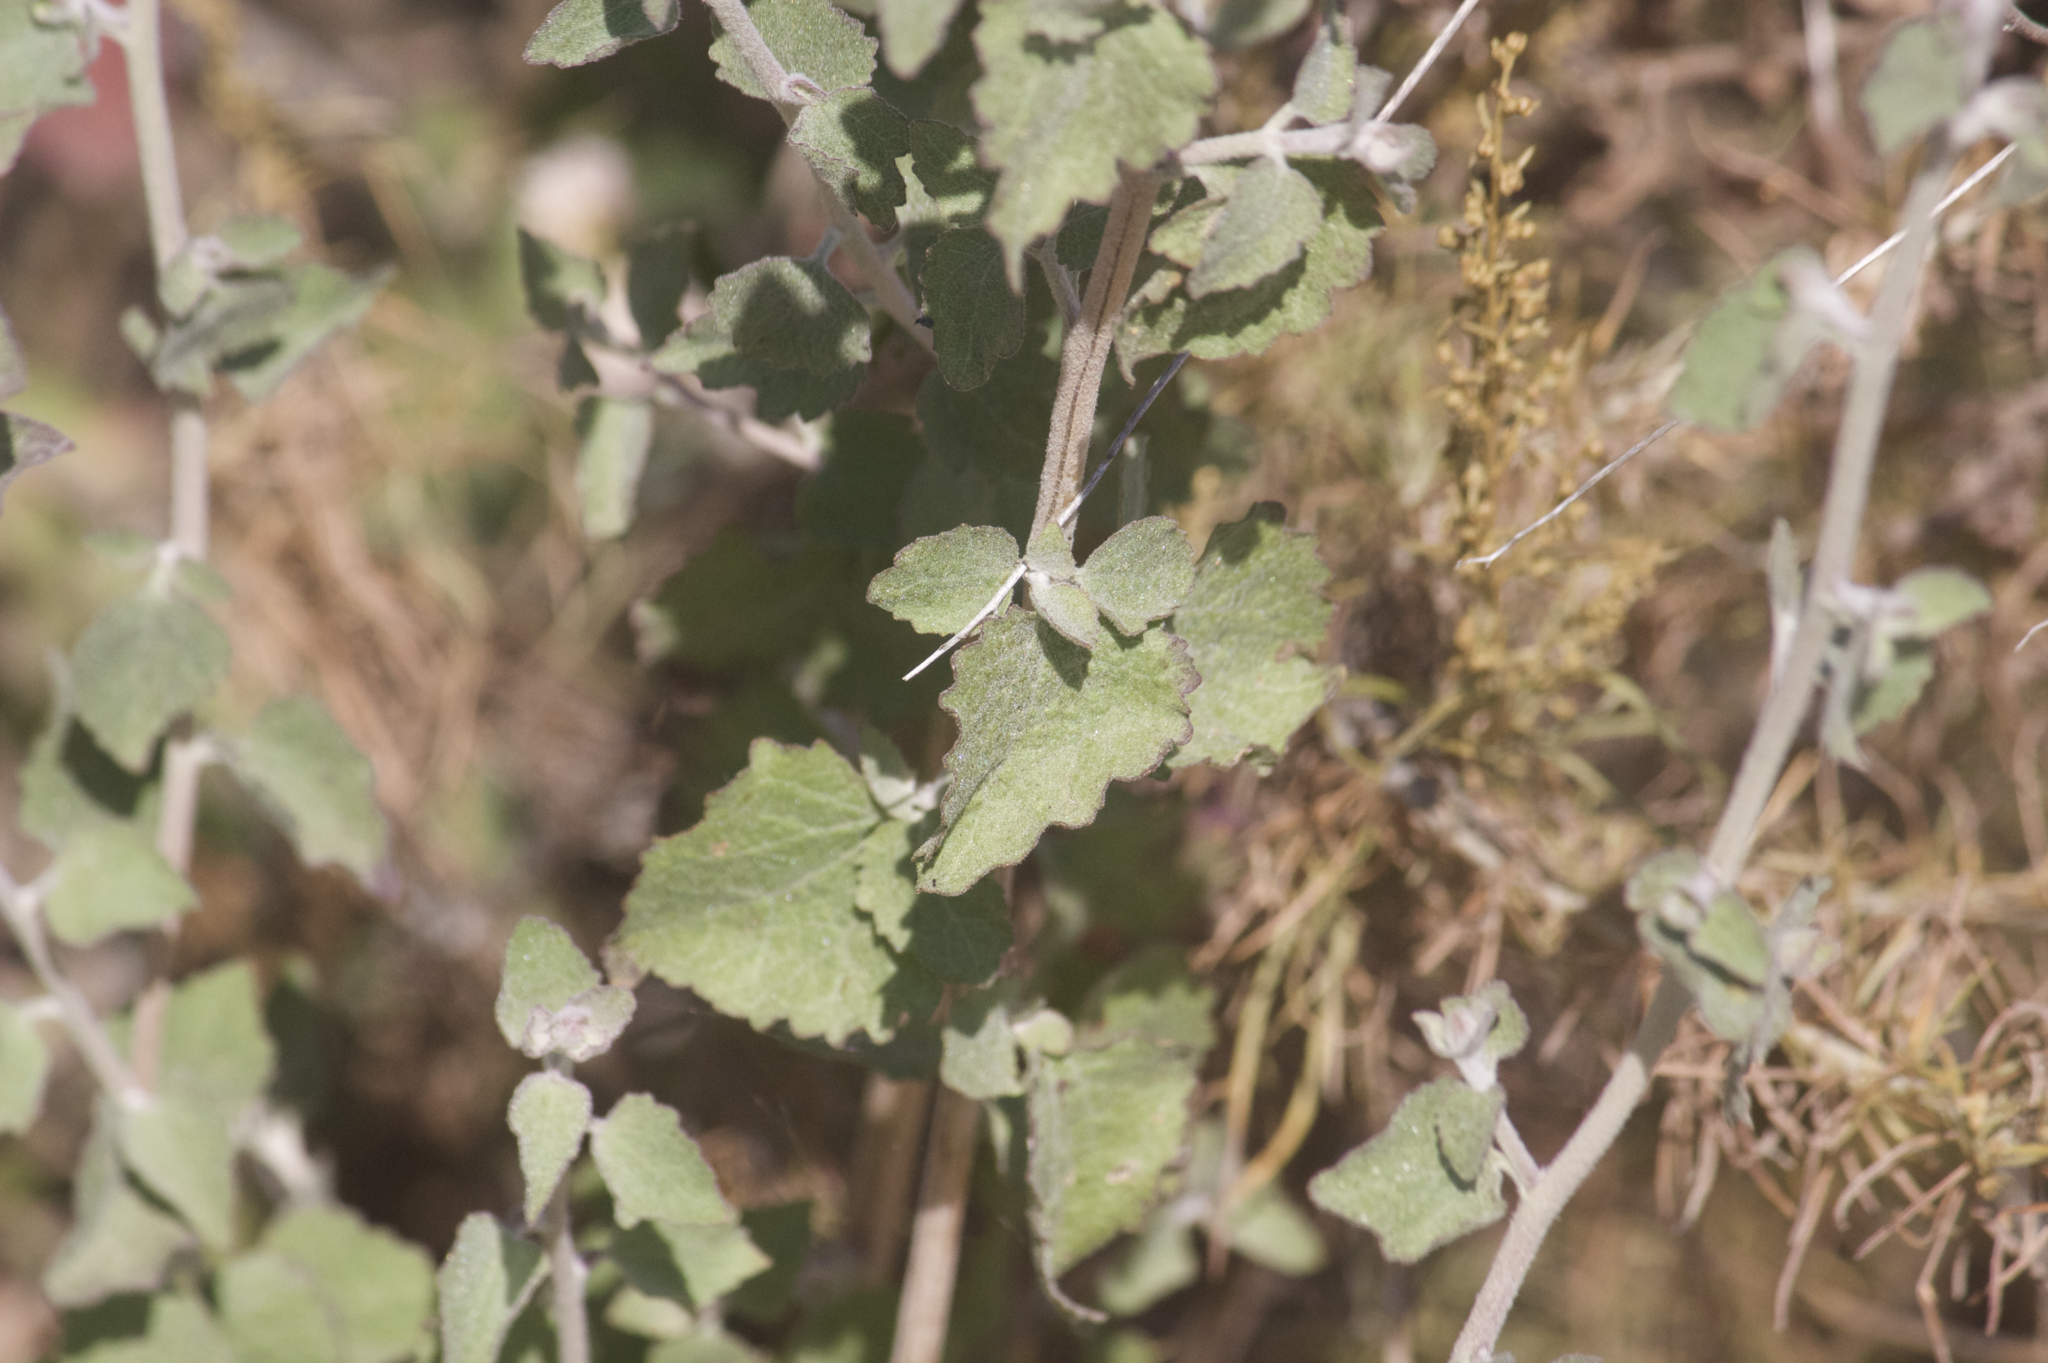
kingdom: Plantae
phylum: Tracheophyta
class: Magnoliopsida
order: Asterales
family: Asteraceae
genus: Brickellia
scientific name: Brickellia californica
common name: California brickellbush
